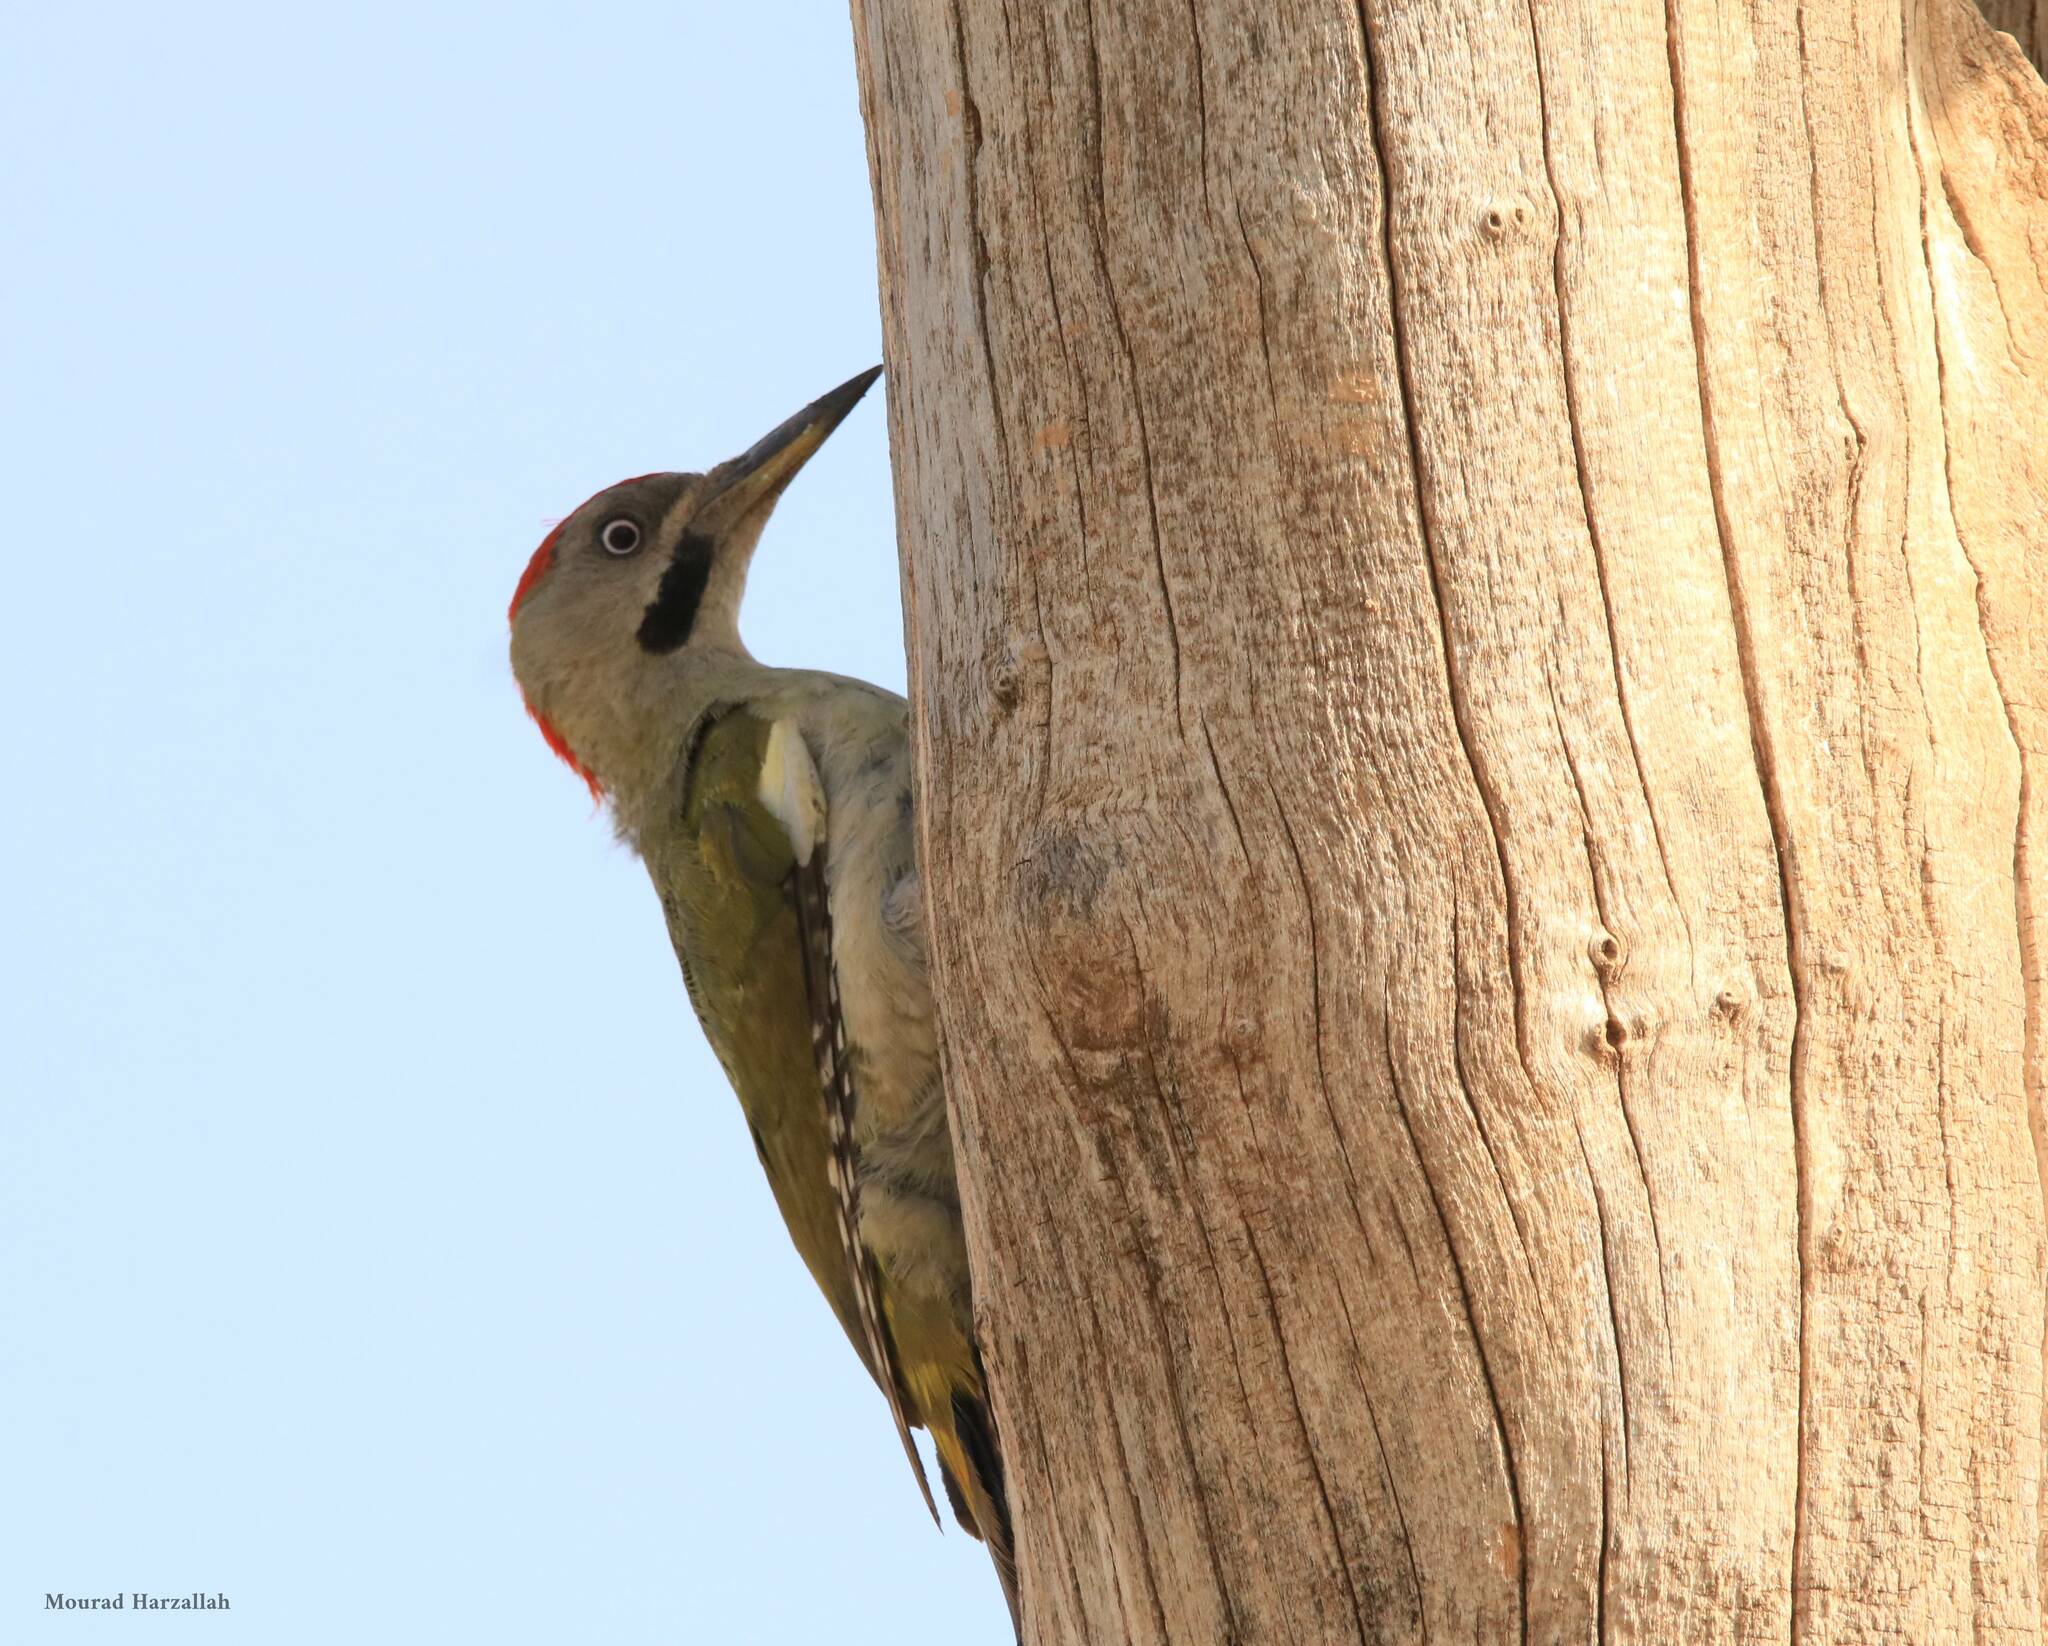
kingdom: Animalia
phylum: Chordata
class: Aves
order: Piciformes
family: Picidae
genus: Picus
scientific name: Picus vaillantii
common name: Levaillant's woodpecker
